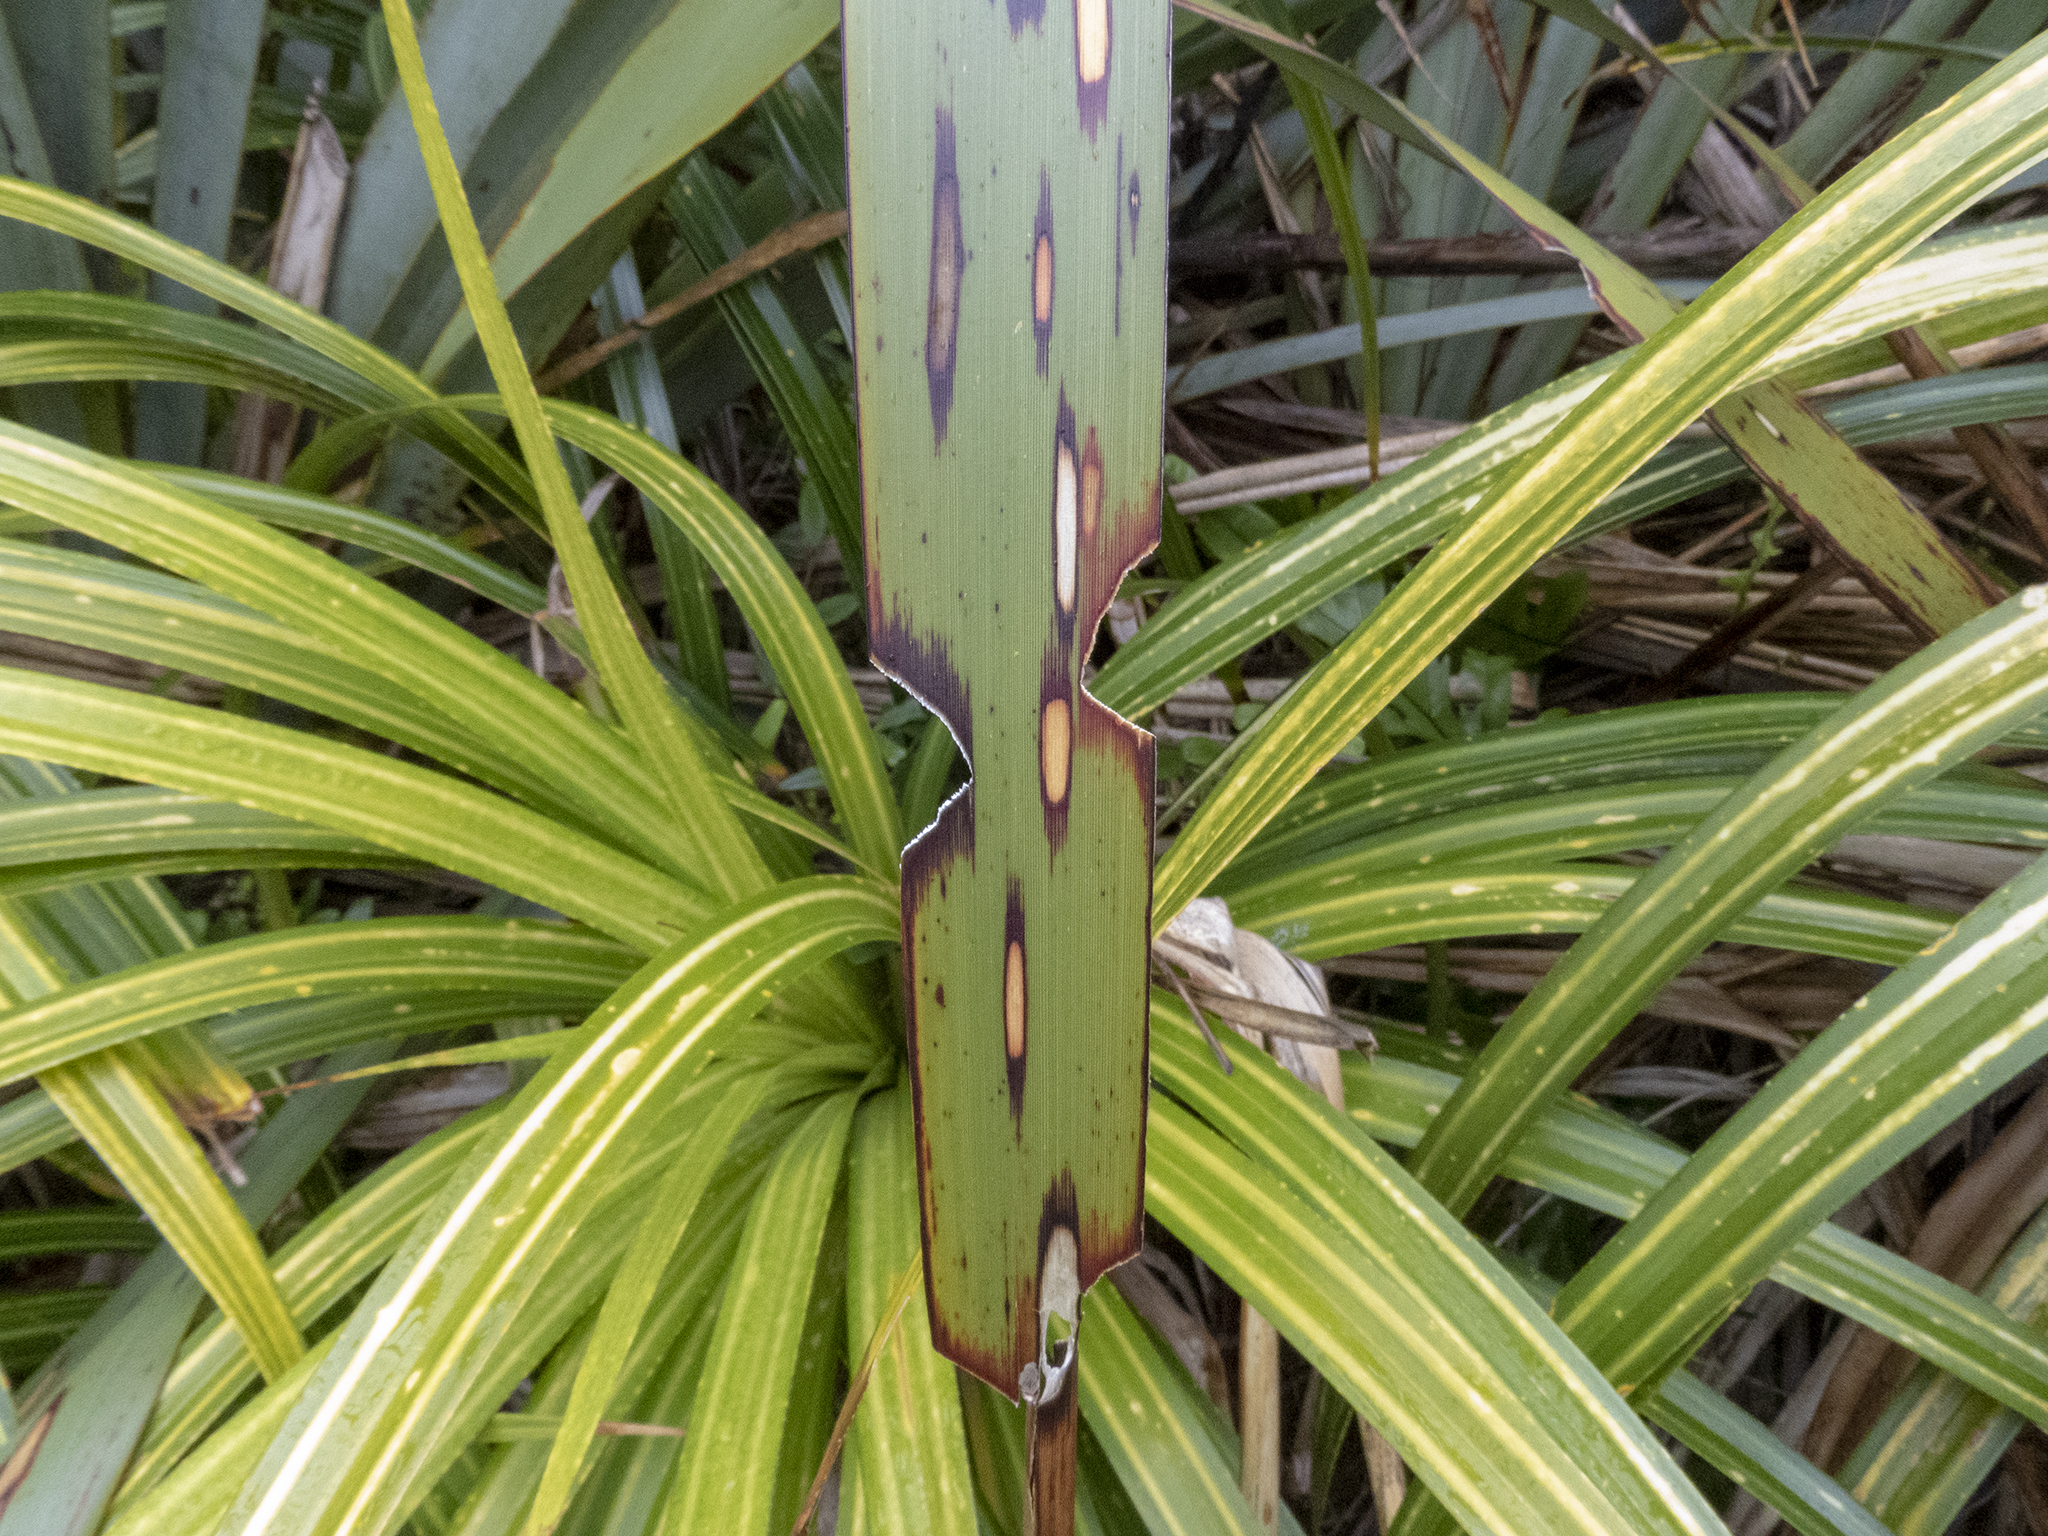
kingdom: Animalia
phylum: Arthropoda
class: Insecta
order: Lepidoptera
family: Geometridae
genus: Orthoclydon
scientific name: Orthoclydon praefectata
